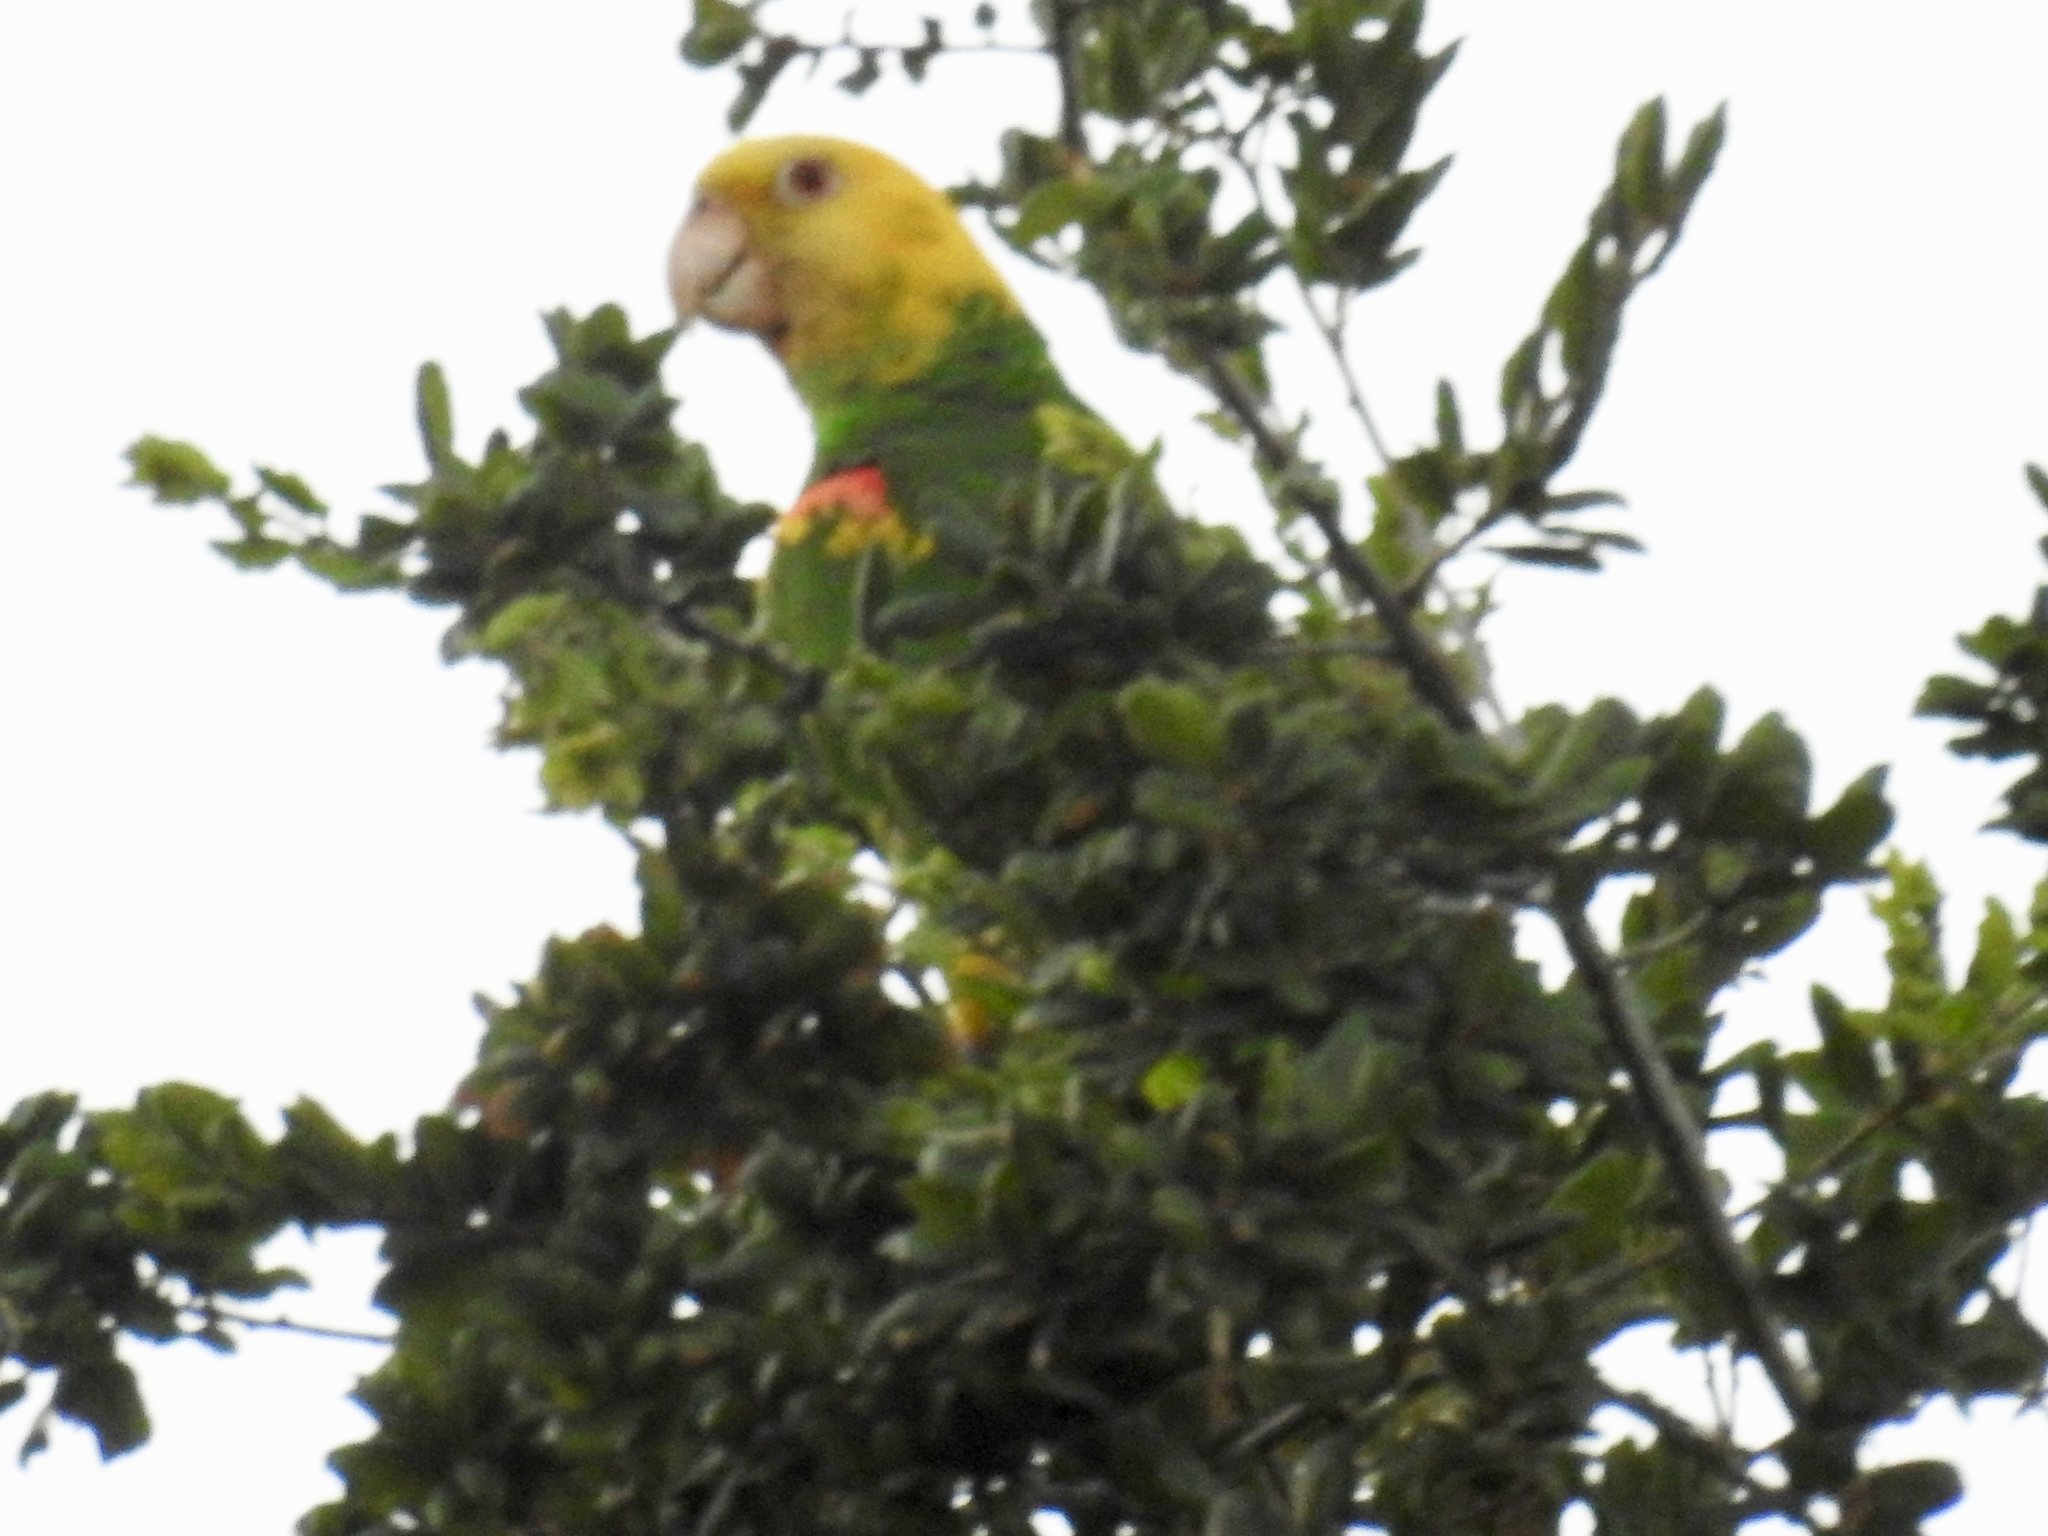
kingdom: Animalia
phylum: Chordata
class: Aves
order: Psittaciformes
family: Psittacidae
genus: Amazona
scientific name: Amazona oratrix
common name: Yellow-headed amazon
